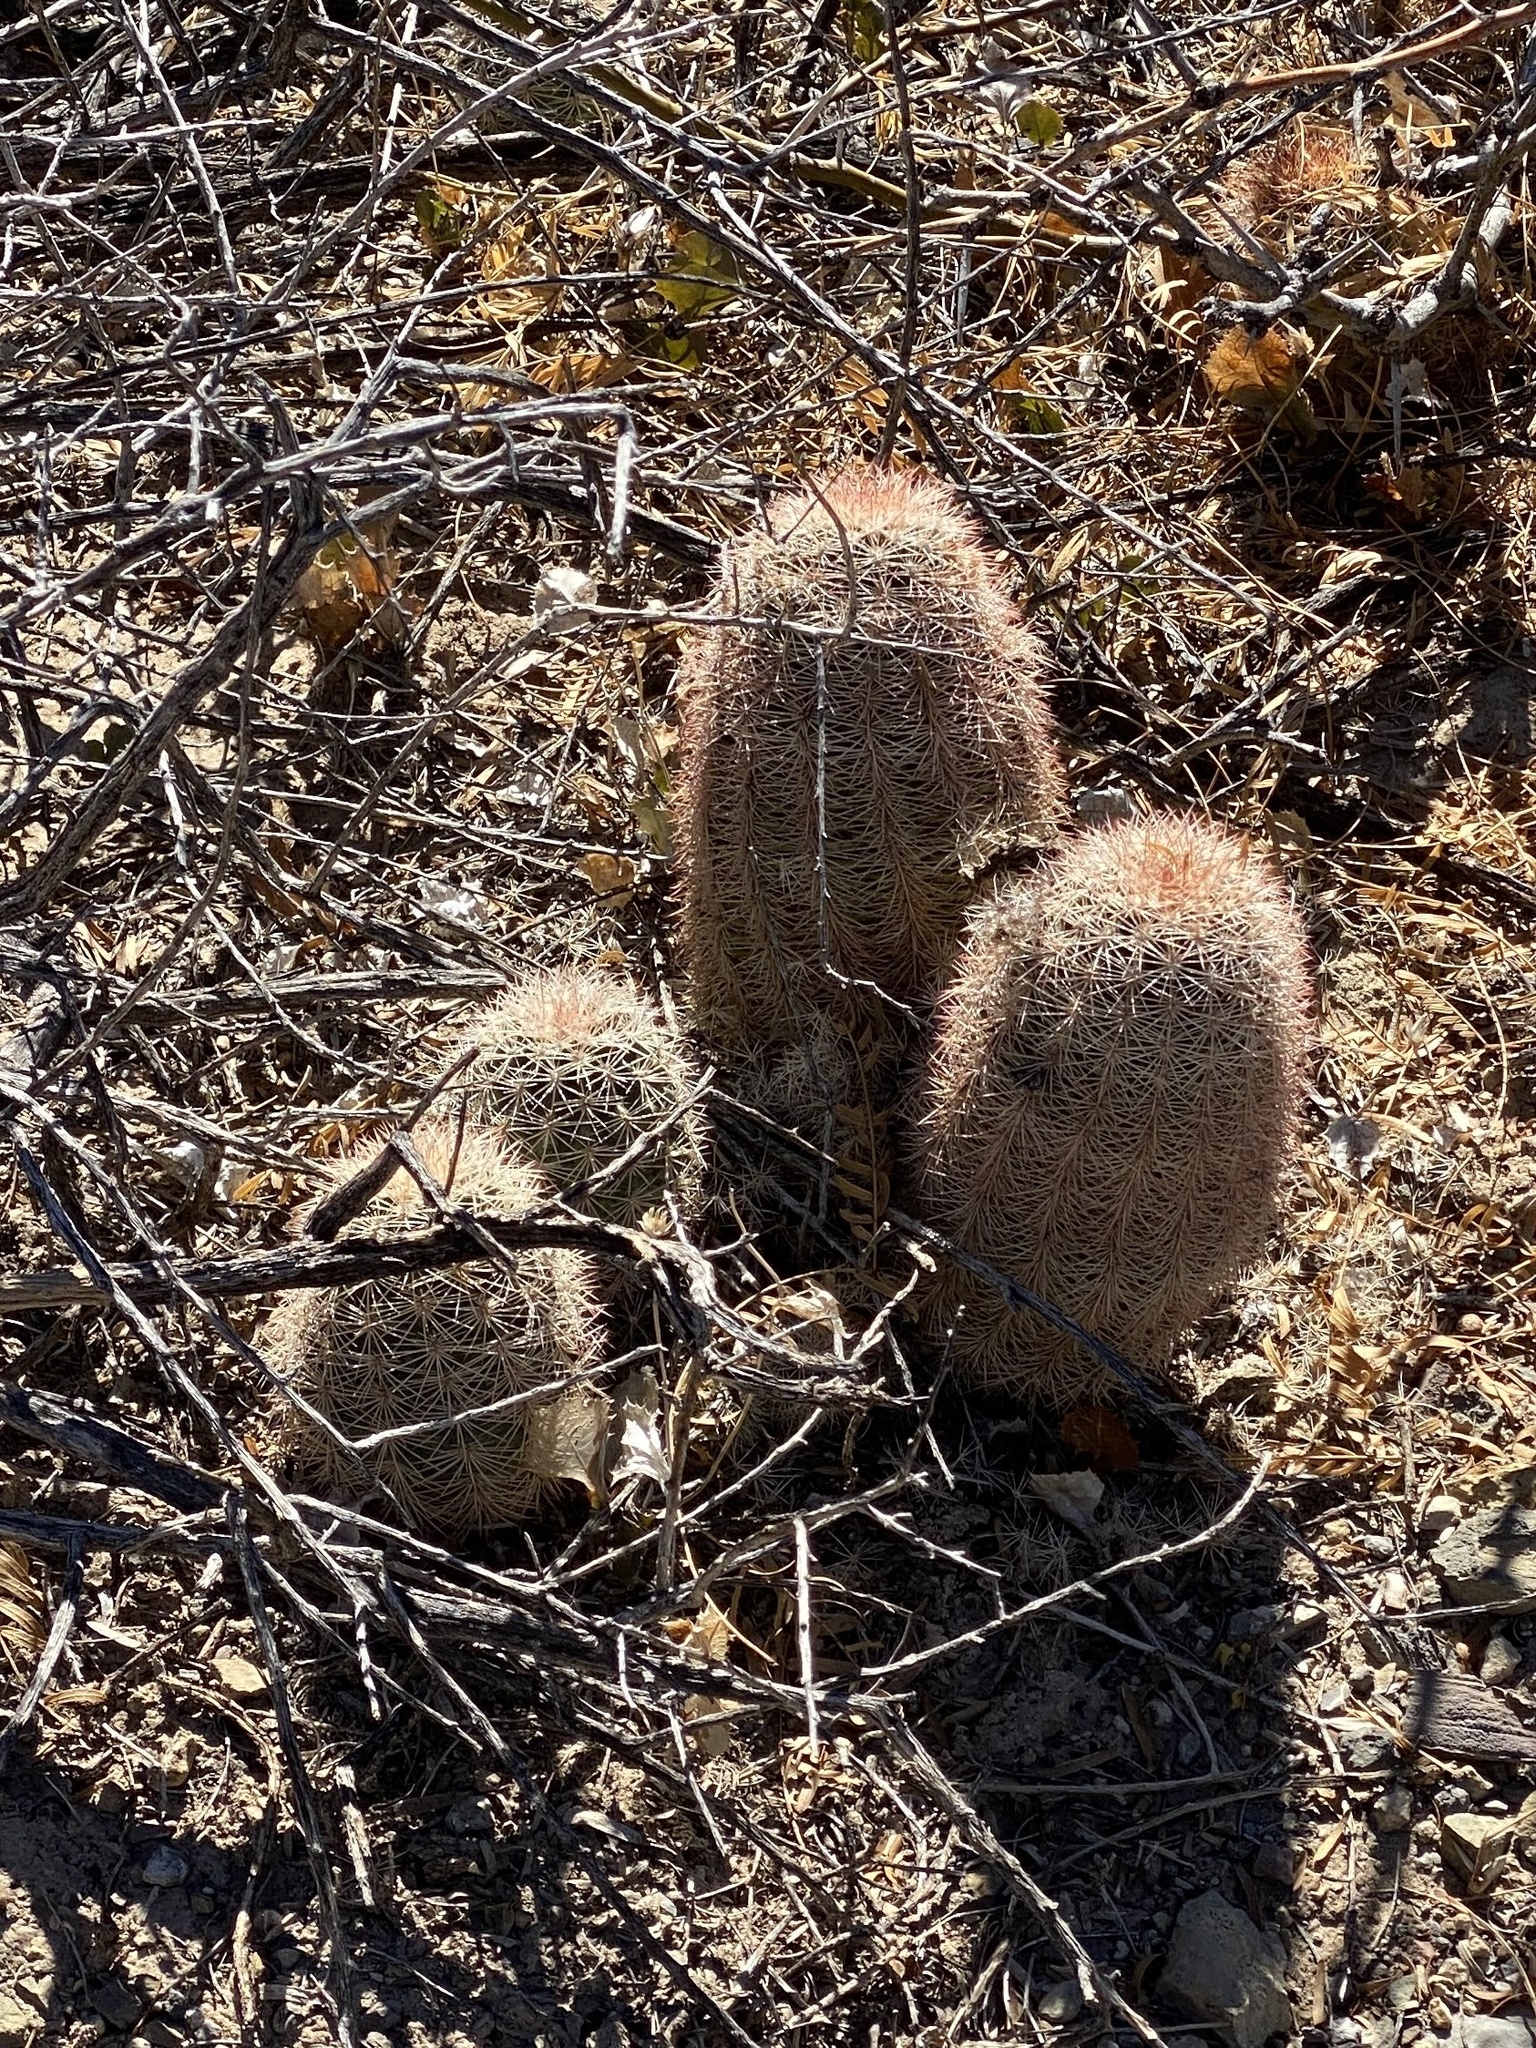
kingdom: Plantae
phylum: Tracheophyta
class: Magnoliopsida
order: Caryophyllales
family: Cactaceae
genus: Echinocereus
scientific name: Echinocereus dasyacanthus
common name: Spiny hedgehog cactus
